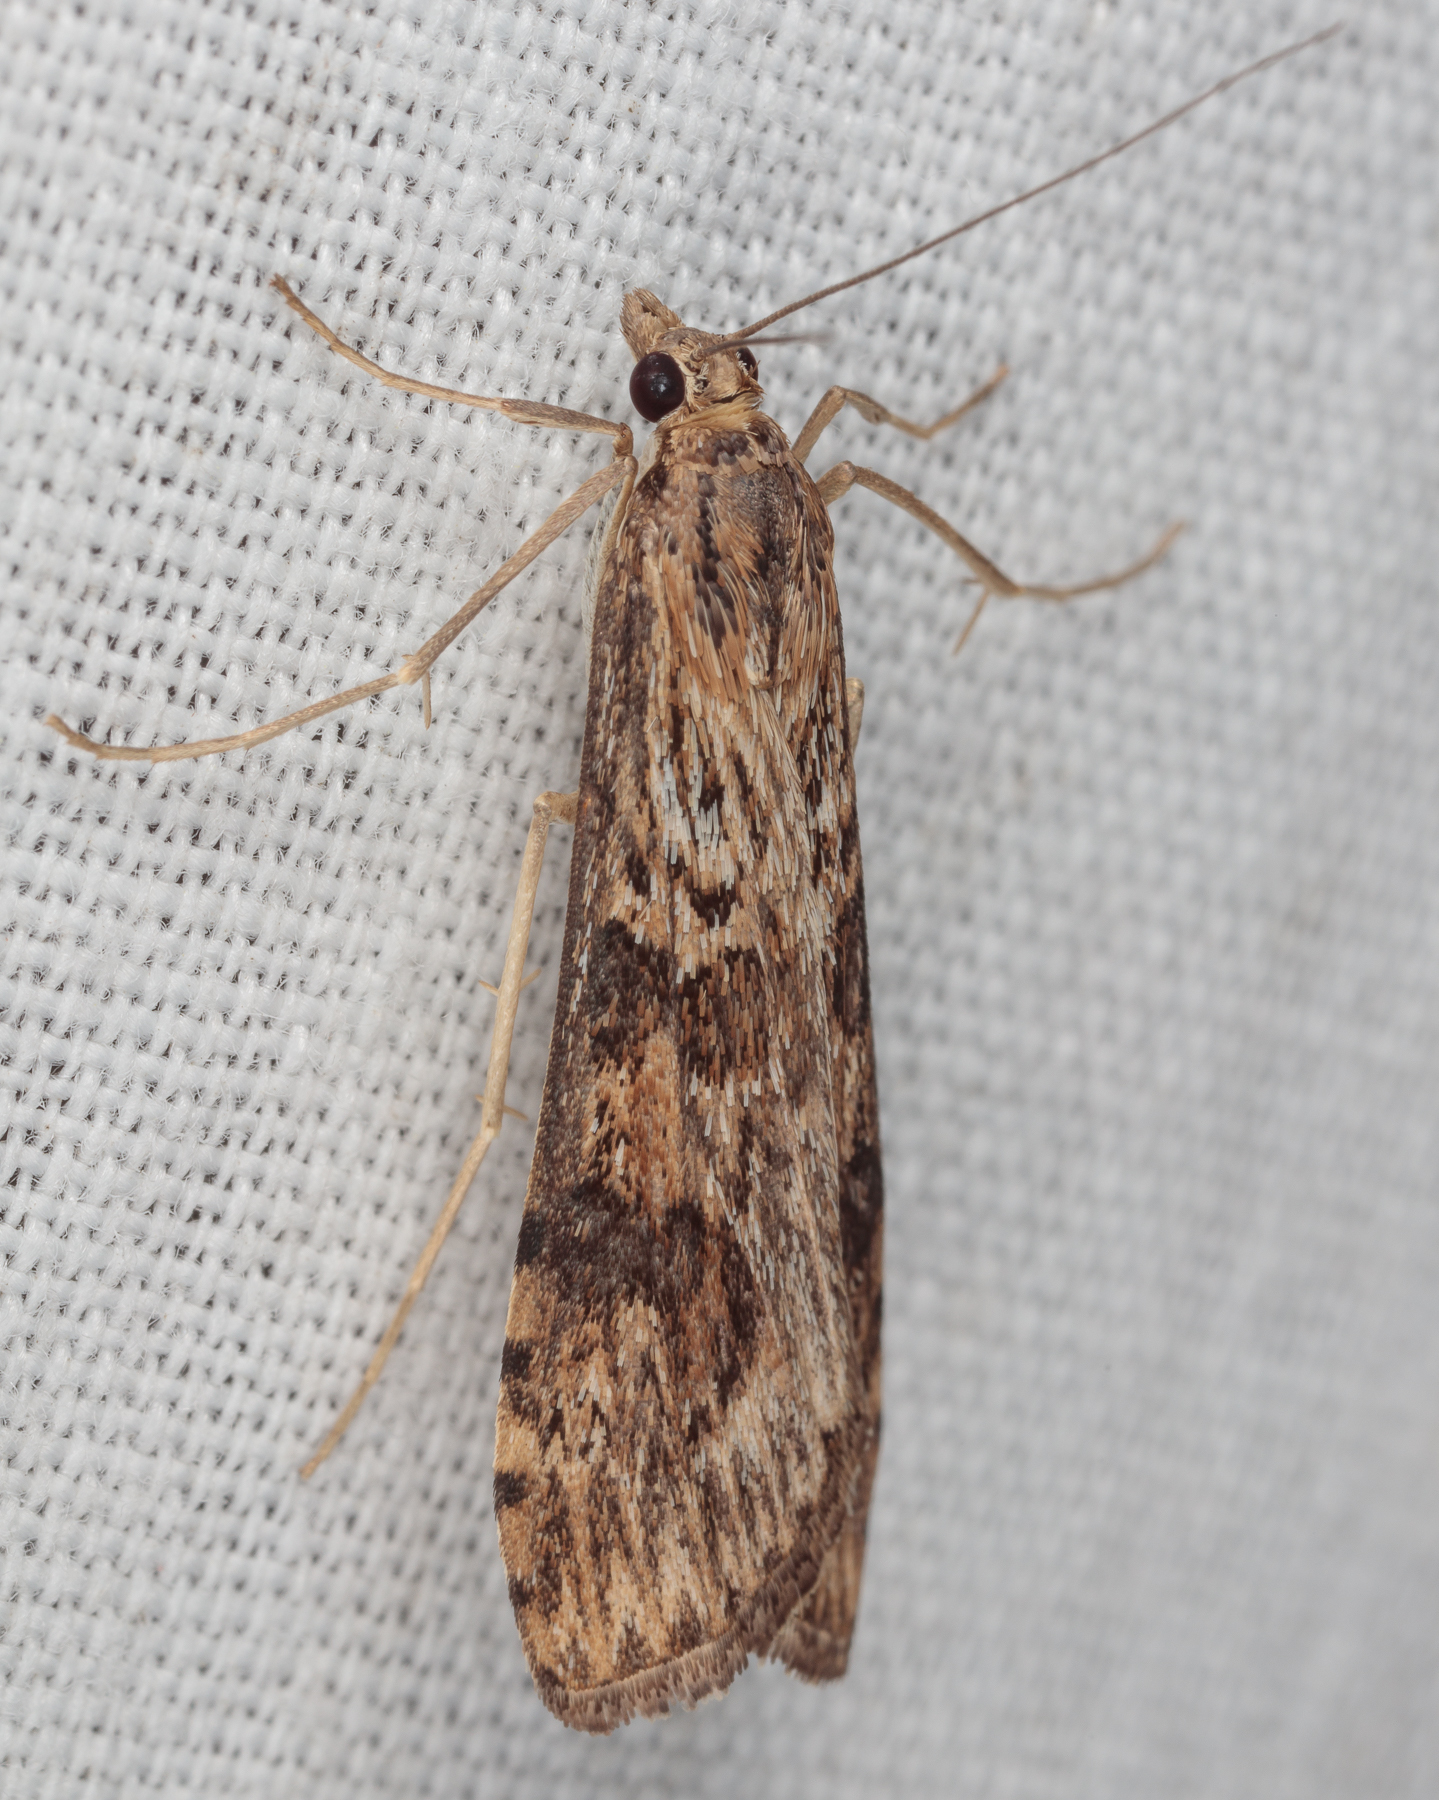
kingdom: Animalia
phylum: Arthropoda
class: Insecta
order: Lepidoptera
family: Crambidae
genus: Nomophila
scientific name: Nomophila nearctica
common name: American rush veneer
